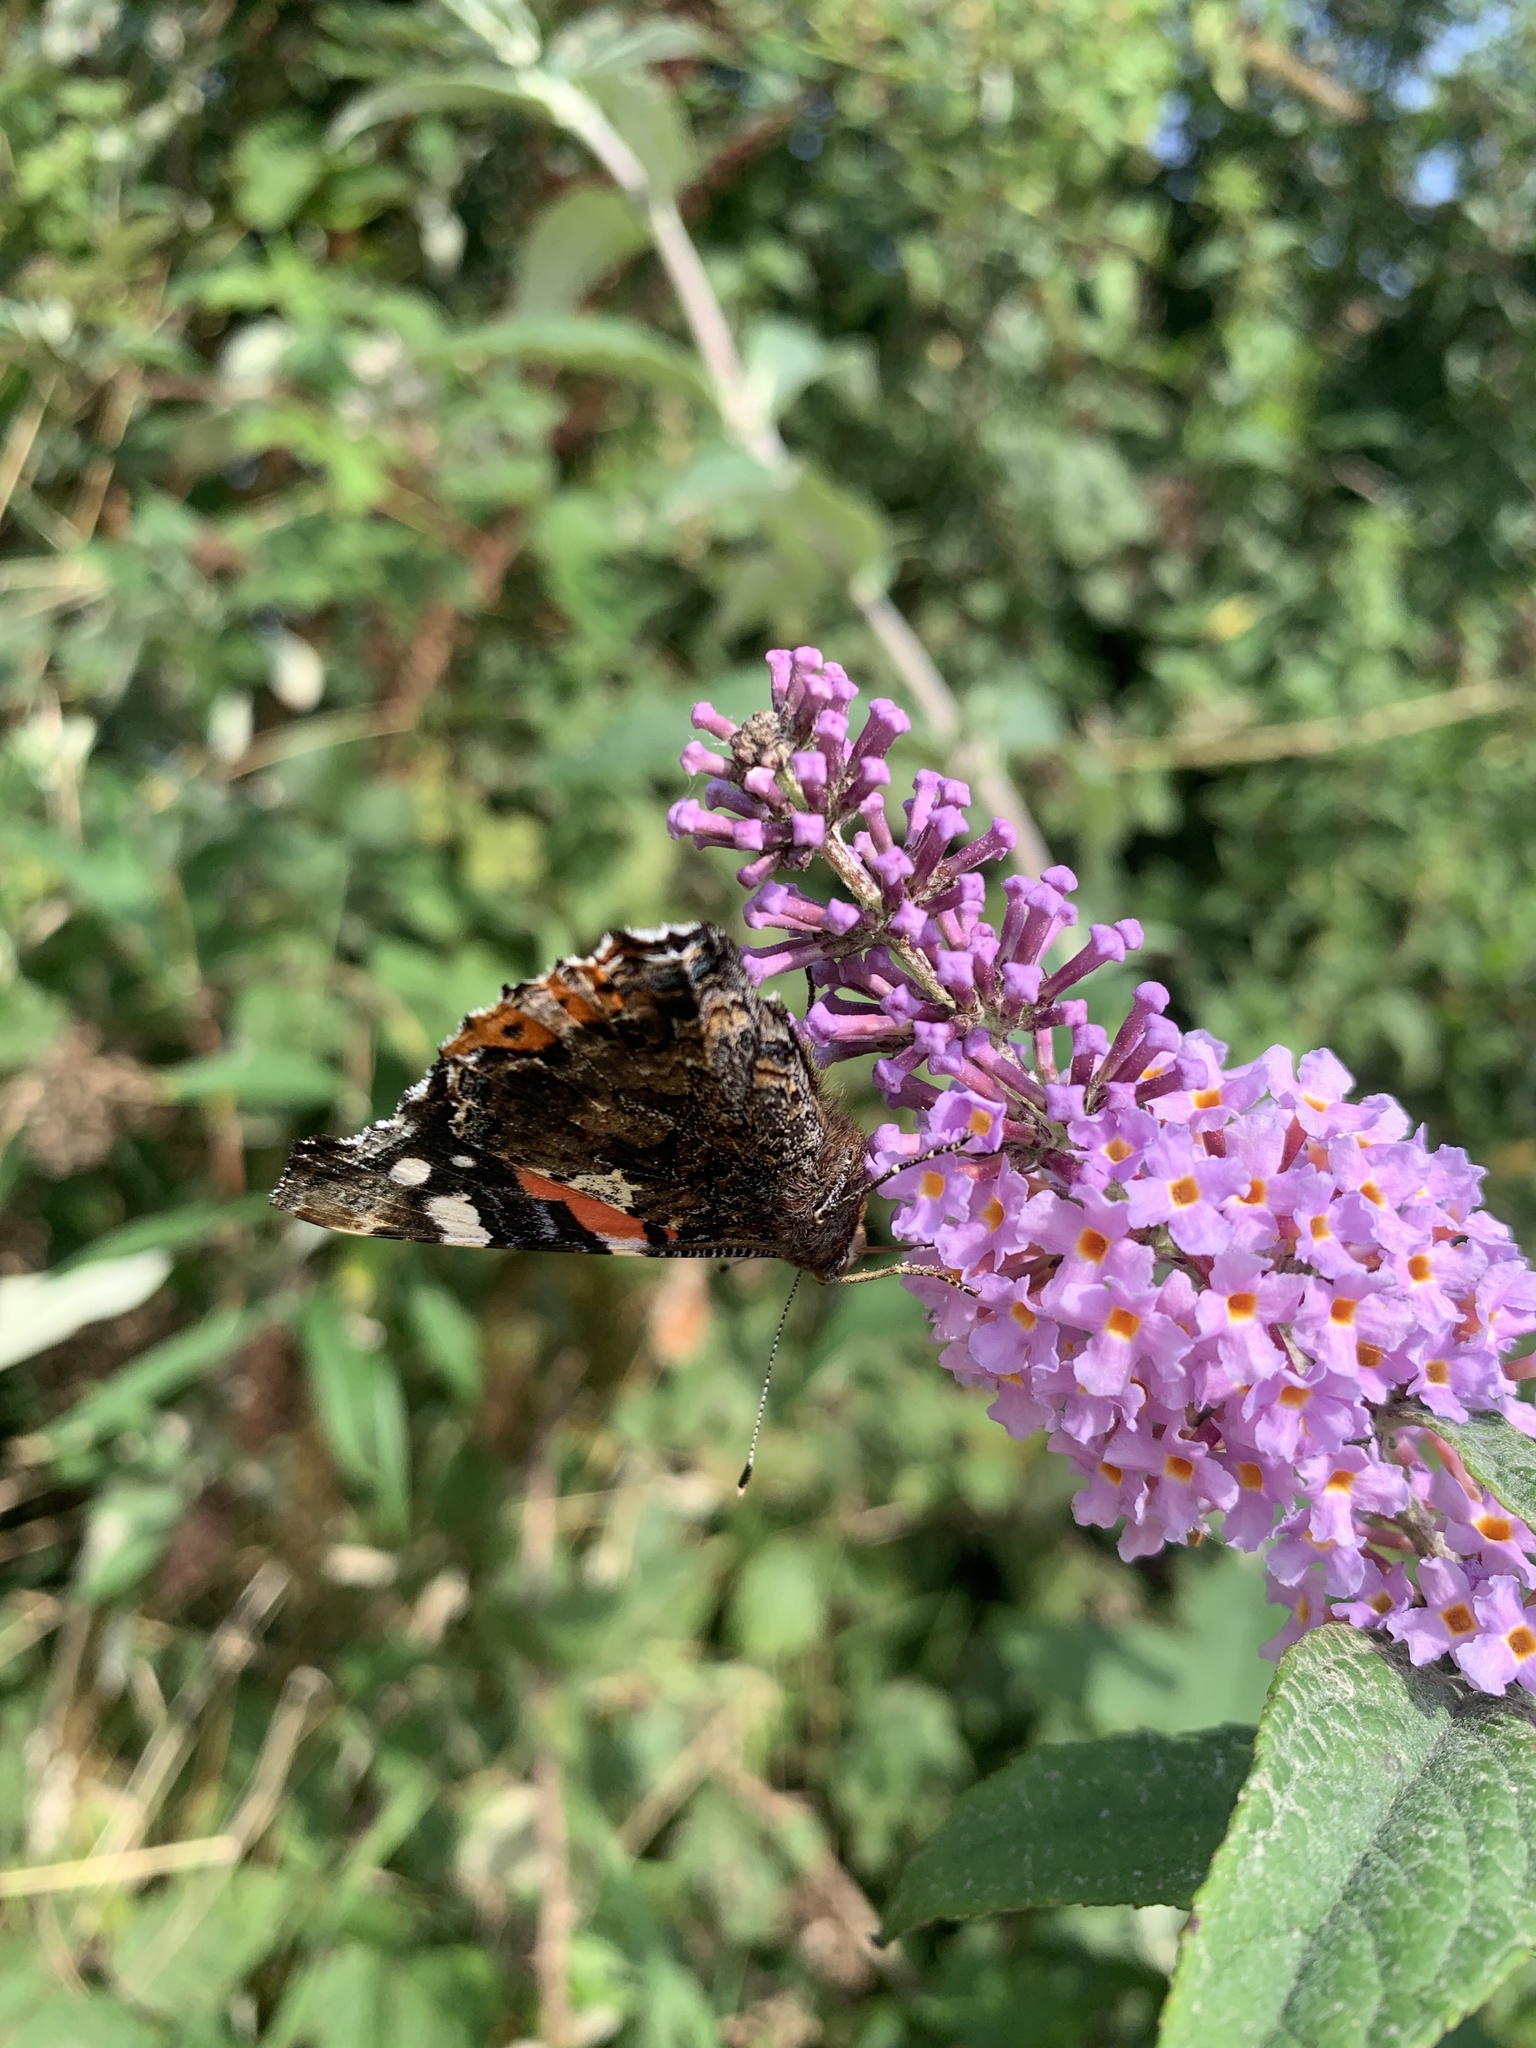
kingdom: Animalia
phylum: Arthropoda
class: Insecta
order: Lepidoptera
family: Nymphalidae
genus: Vanessa
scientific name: Vanessa atalanta
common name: Red admiral
